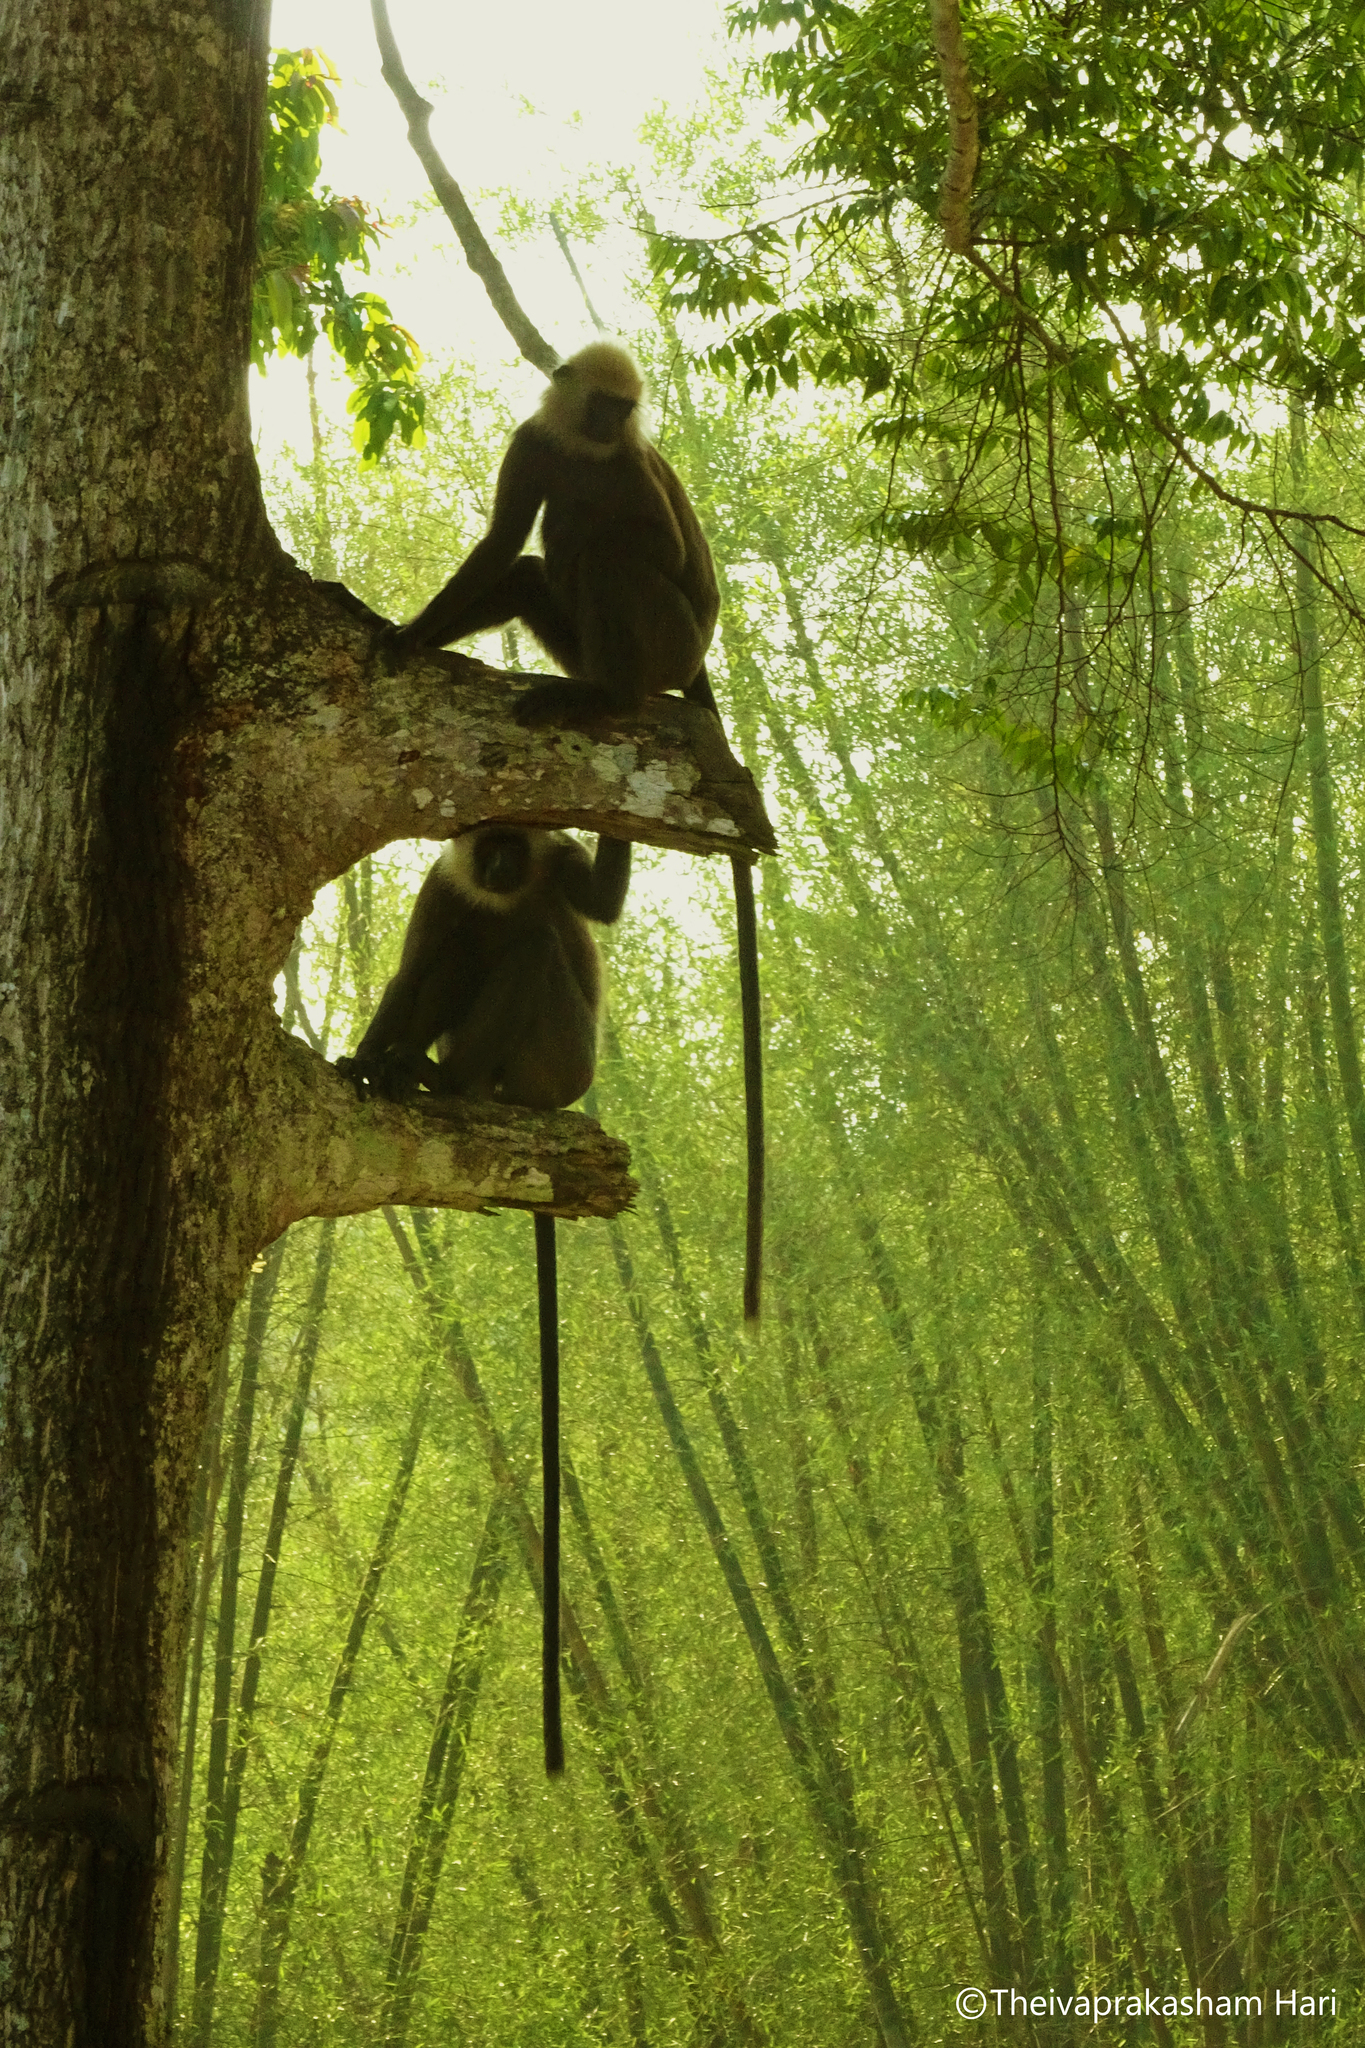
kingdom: Animalia
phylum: Chordata
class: Mammalia
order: Primates
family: Cercopithecidae
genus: Semnopithecus
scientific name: Semnopithecus johnii
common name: Nilgiri langur
